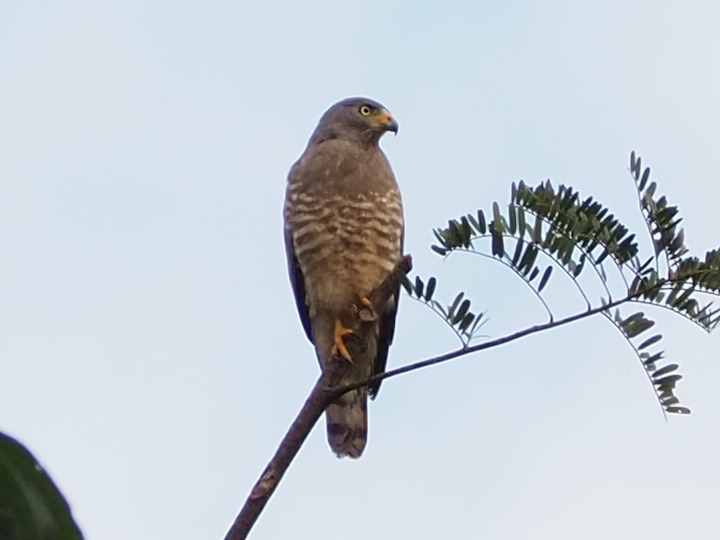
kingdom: Animalia
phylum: Chordata
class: Aves
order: Accipitriformes
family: Accipitridae
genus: Rupornis
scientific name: Rupornis magnirostris
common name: Roadside hawk
